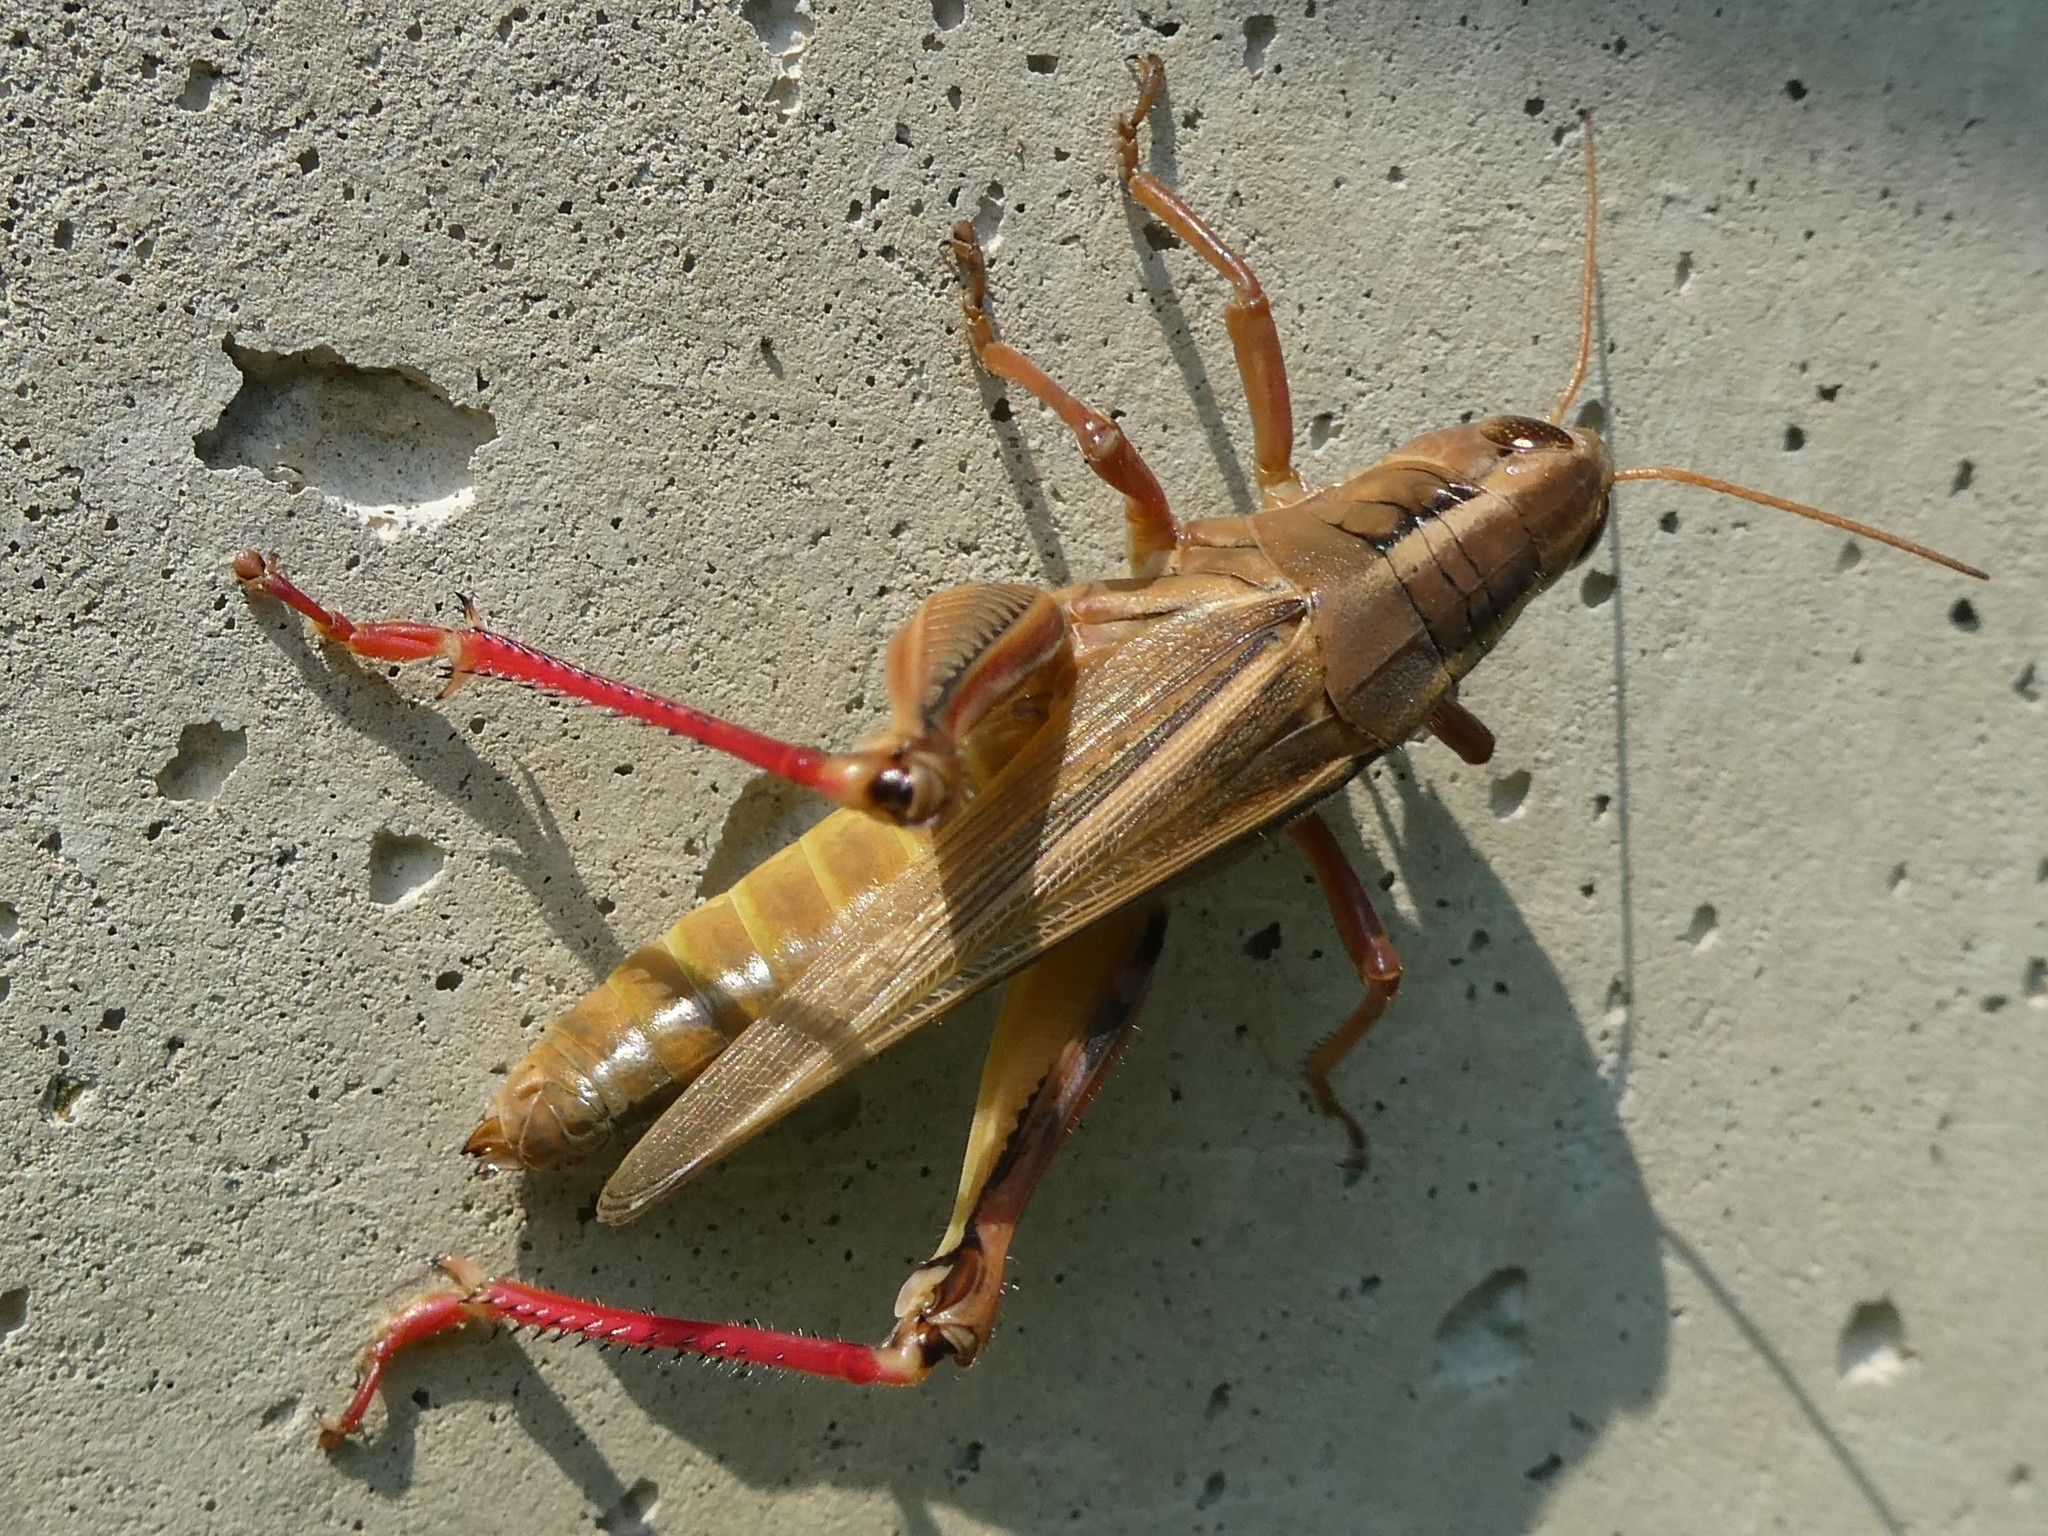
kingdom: Animalia
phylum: Arthropoda
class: Insecta
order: Orthoptera
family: Acrididae
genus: Melanoplus
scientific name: Melanoplus bivittatus
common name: Two-striped grasshopper
